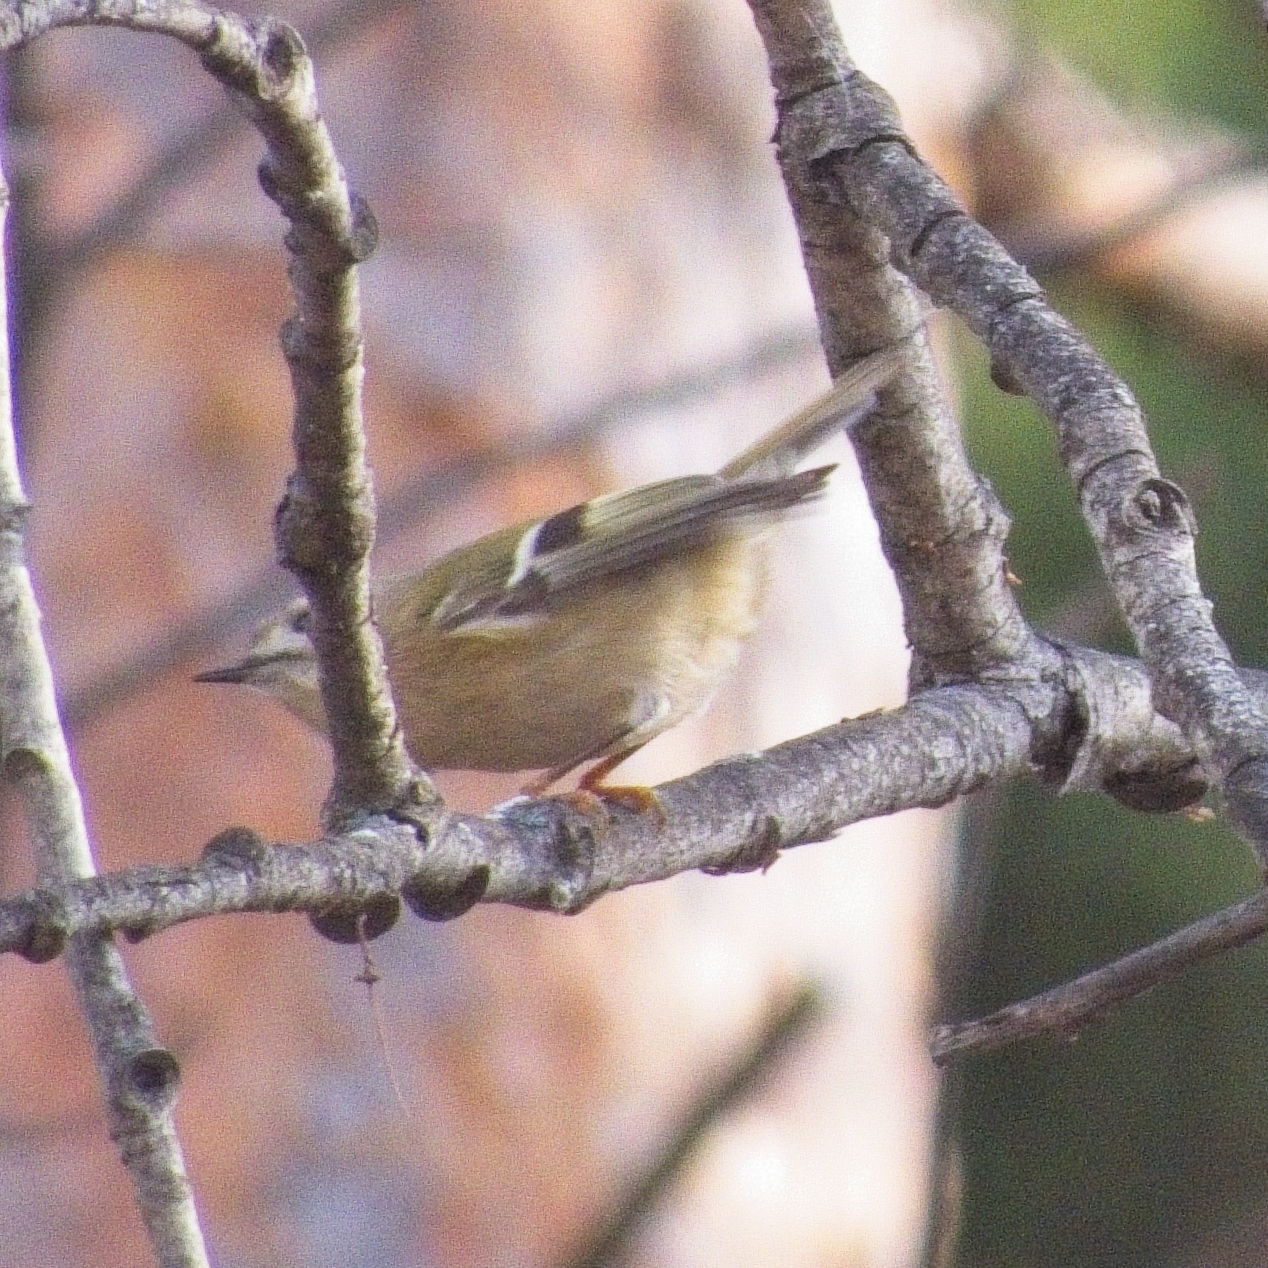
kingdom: Animalia
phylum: Chordata
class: Aves
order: Passeriformes
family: Regulidae
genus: Regulus
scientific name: Regulus regulus
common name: Goldcrest
